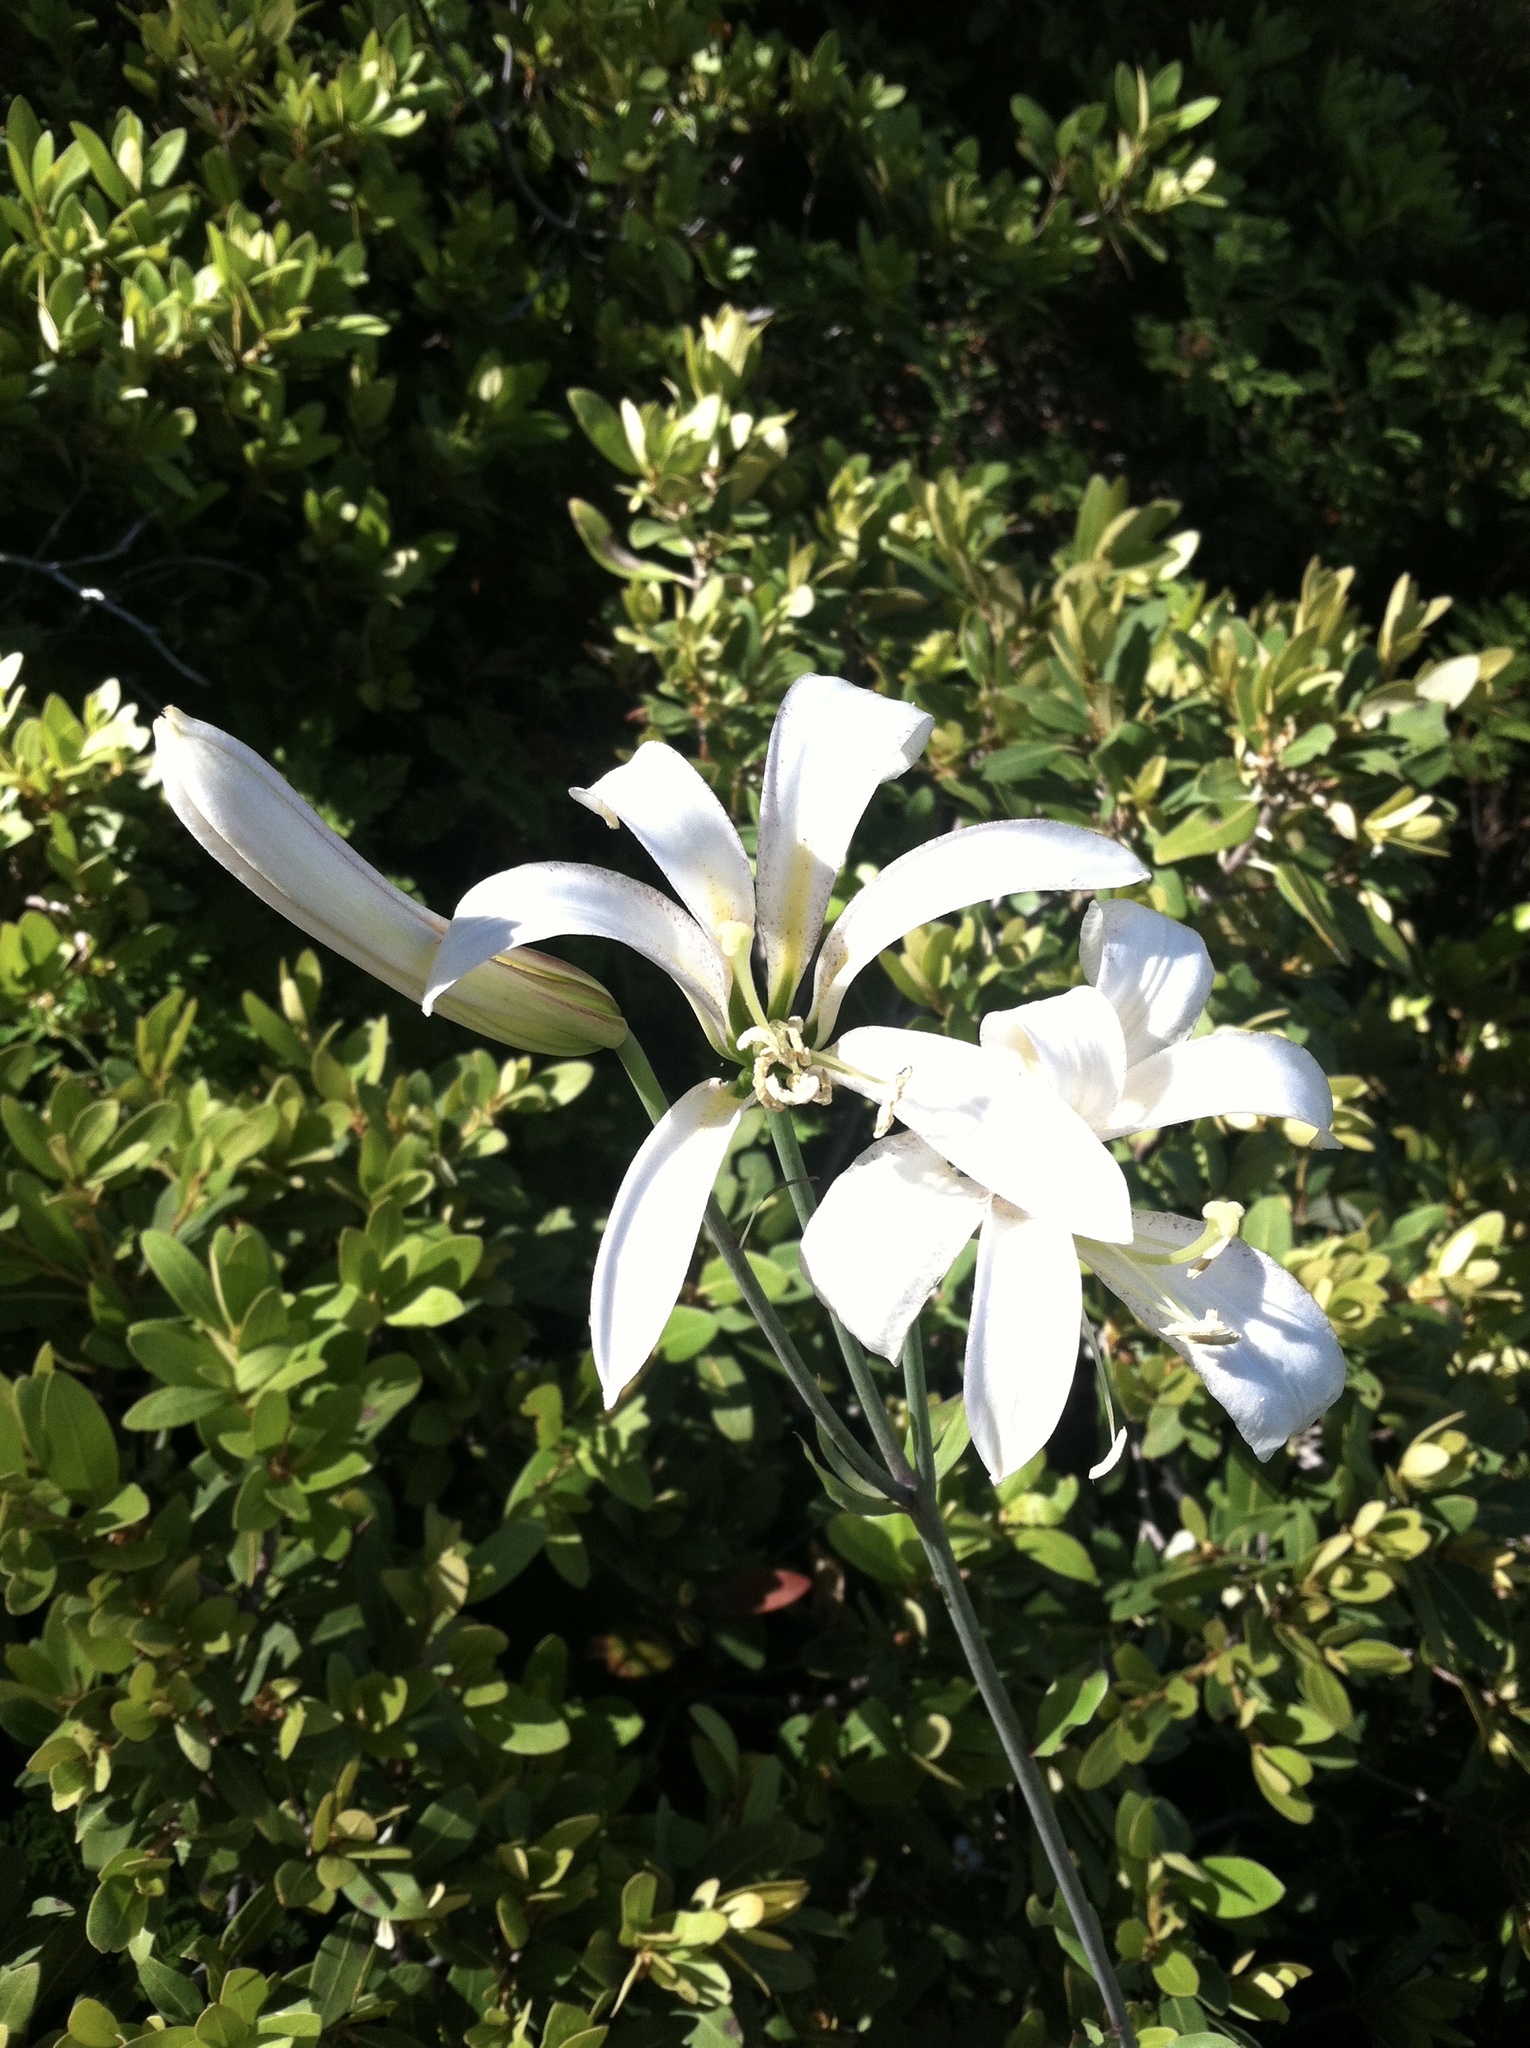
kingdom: Plantae
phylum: Tracheophyta
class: Liliopsida
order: Liliales
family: Liliaceae
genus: Lilium
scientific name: Lilium washingtonianum
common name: Washington lily
